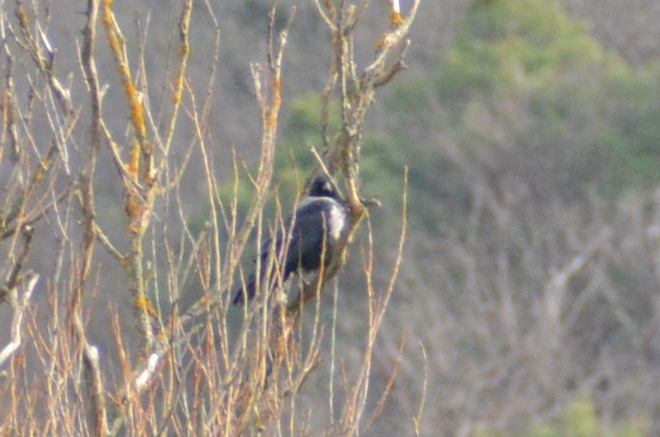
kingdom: Animalia
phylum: Chordata
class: Aves
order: Passeriformes
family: Corvidae
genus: Corvus
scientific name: Corvus cornix
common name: Hooded crow
